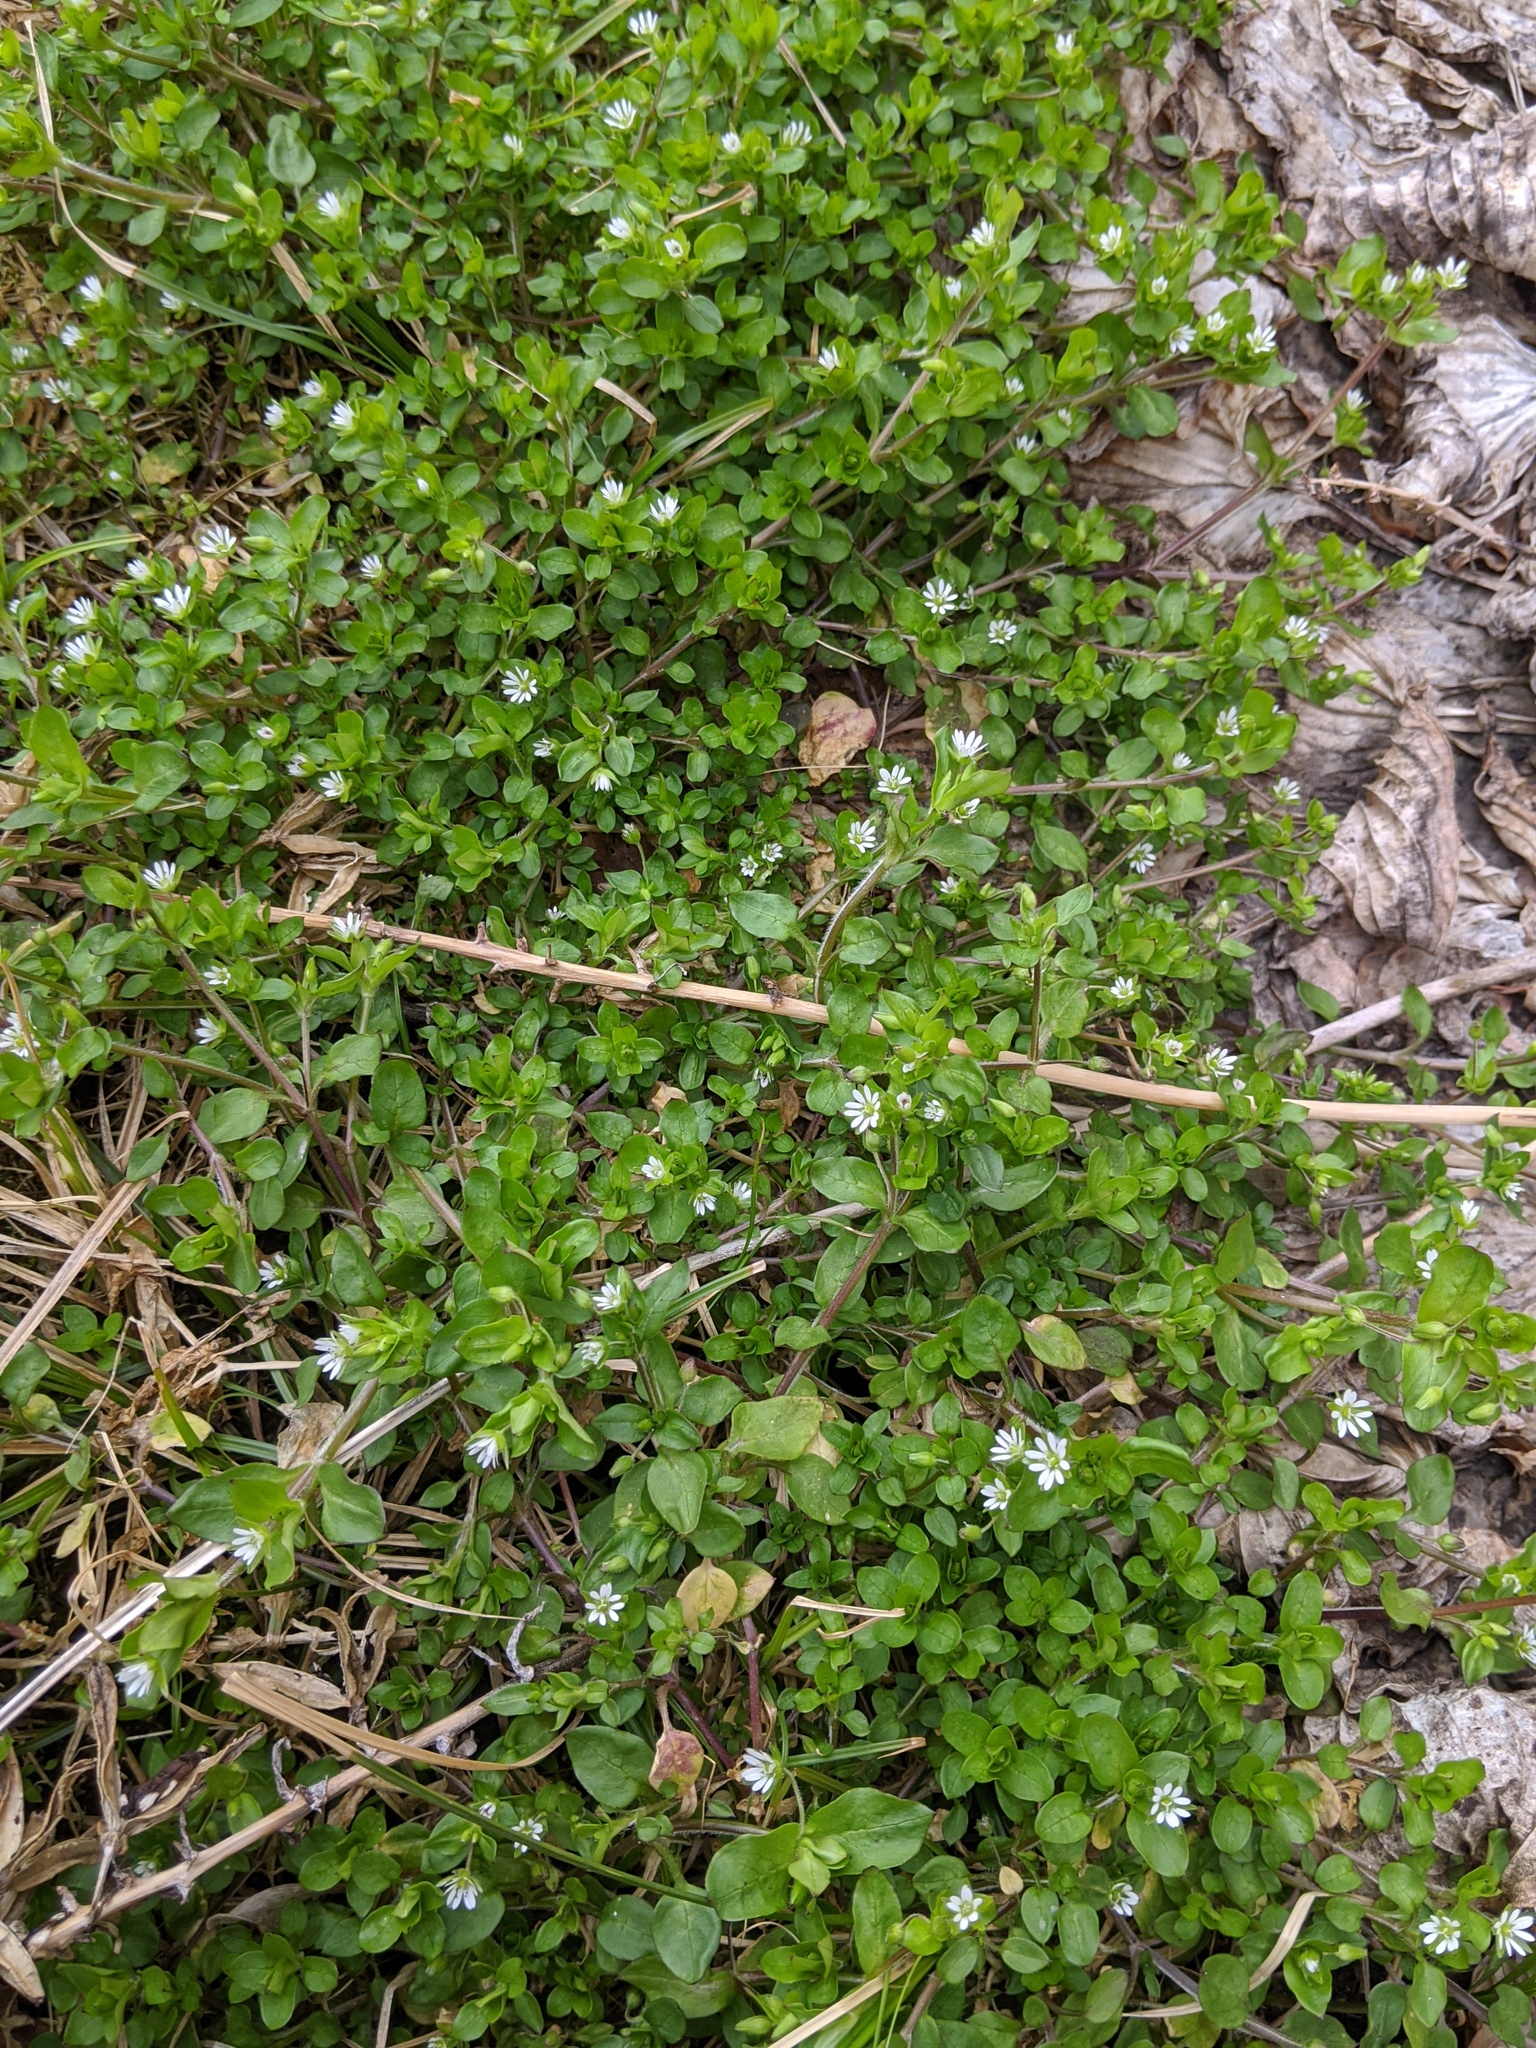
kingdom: Plantae
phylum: Tracheophyta
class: Magnoliopsida
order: Caryophyllales
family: Caryophyllaceae
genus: Stellaria
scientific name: Stellaria media
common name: Common chickweed
